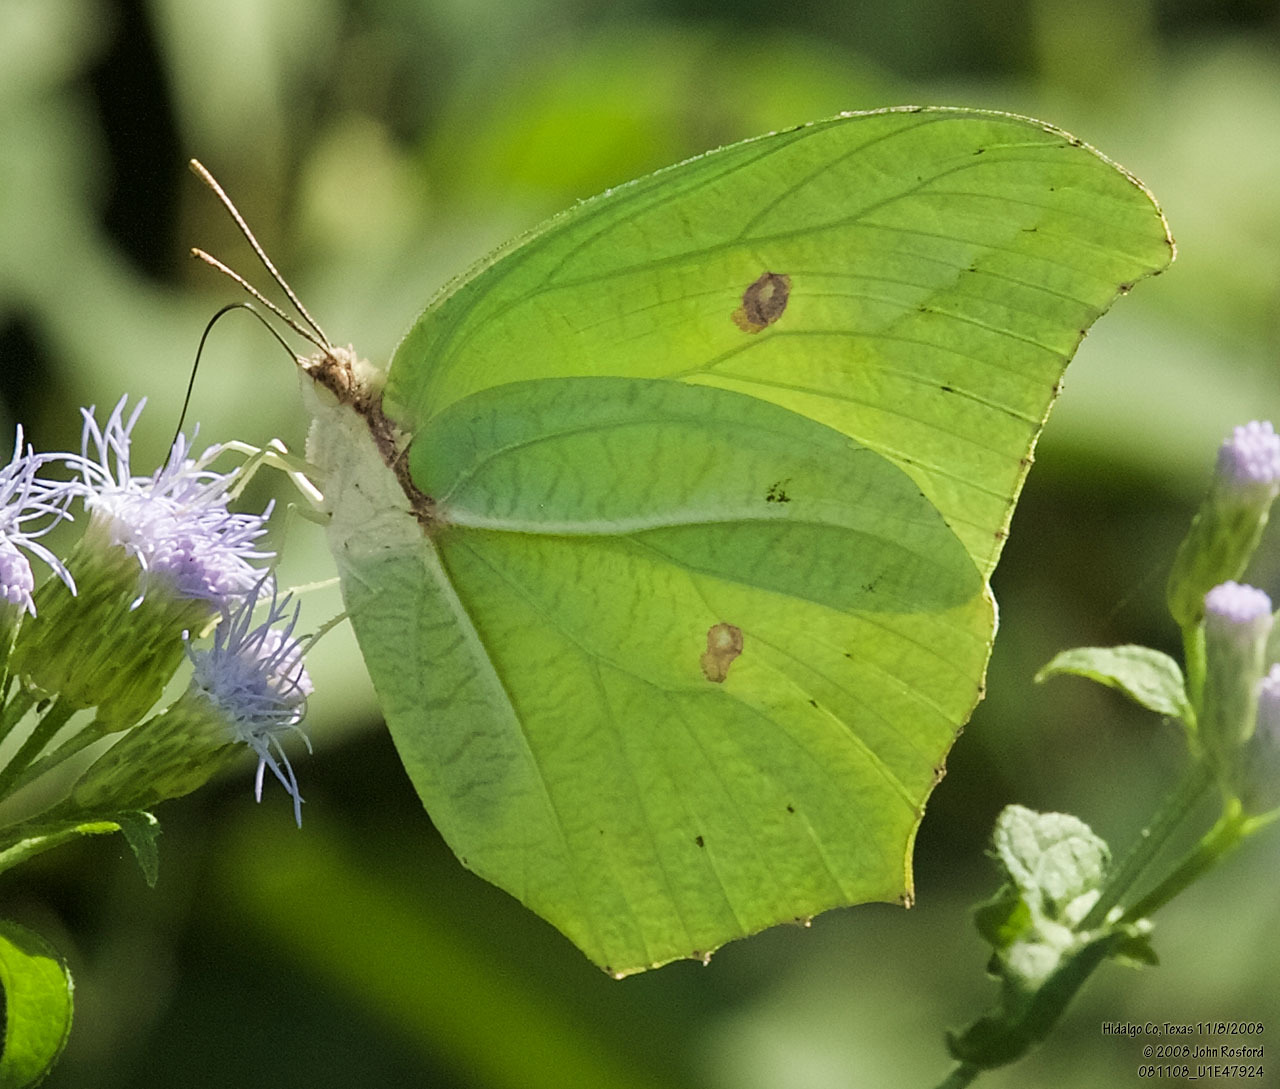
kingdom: Animalia
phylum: Arthropoda
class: Insecta
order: Lepidoptera
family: Pieridae
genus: Anteos
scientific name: Anteos maerula
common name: Angled sulphur
